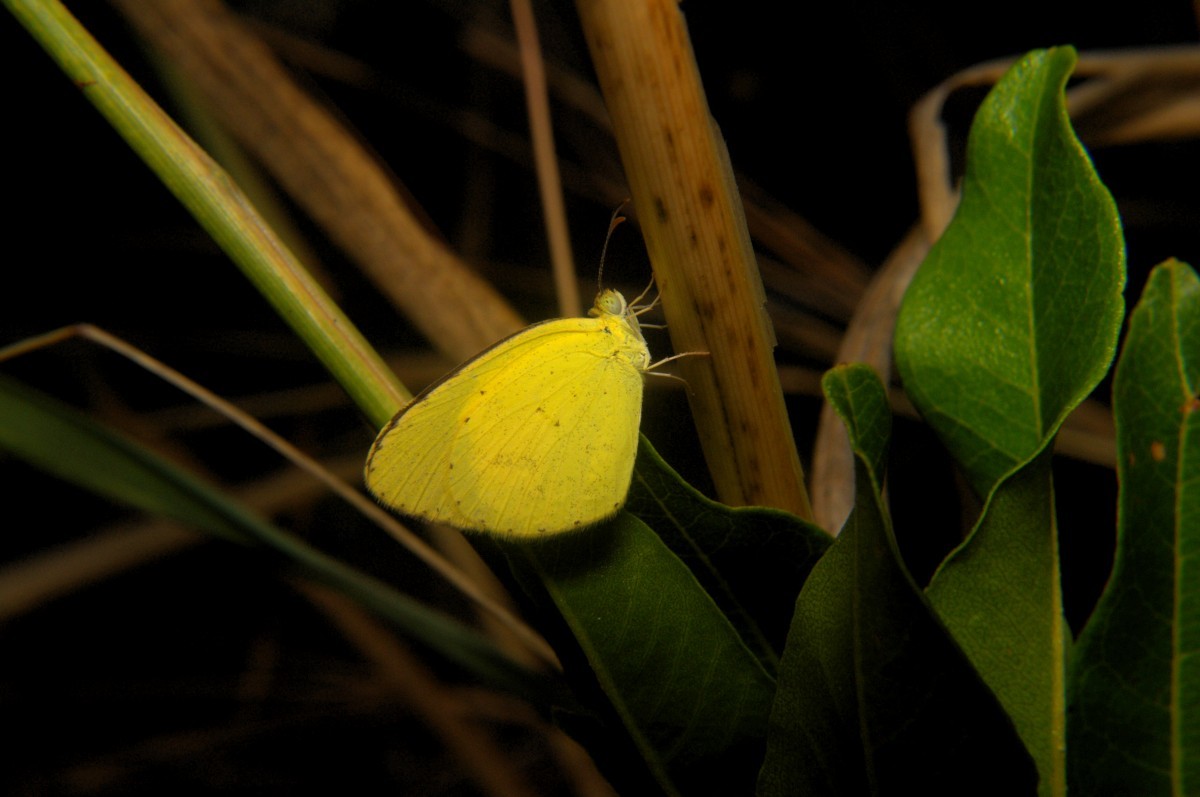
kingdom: Animalia
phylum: Arthropoda
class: Insecta
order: Lepidoptera
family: Pieridae
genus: Eurema
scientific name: Eurema brigitta
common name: Small grass yellow
